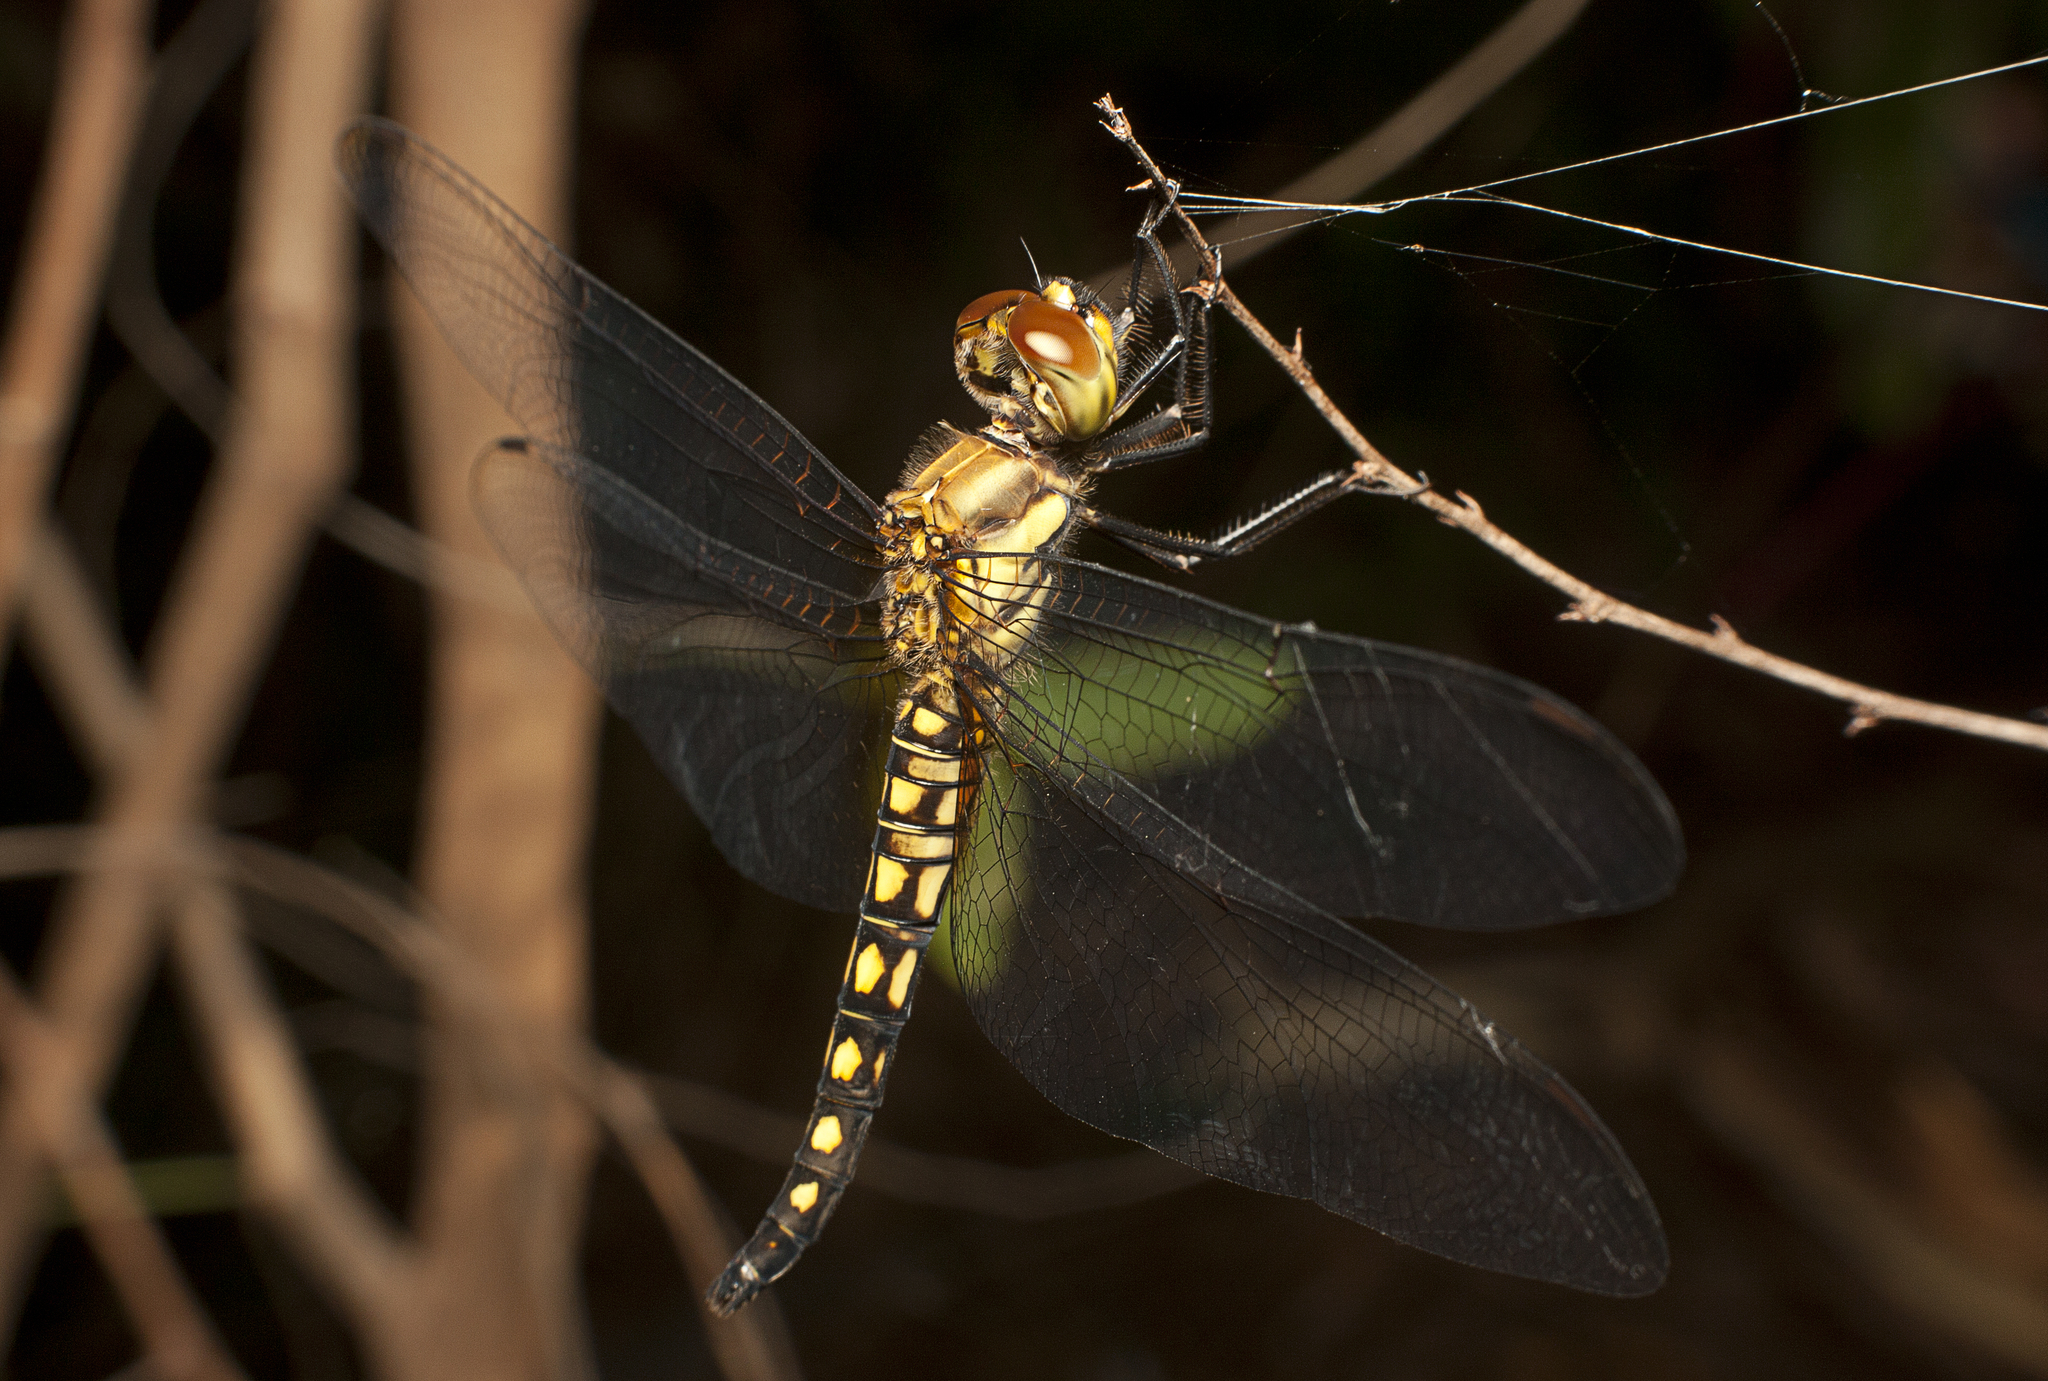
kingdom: Animalia
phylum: Arthropoda
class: Insecta
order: Odonata
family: Libellulidae
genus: Hydrobasileus
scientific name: Hydrobasileus brevistylus
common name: Water prince
